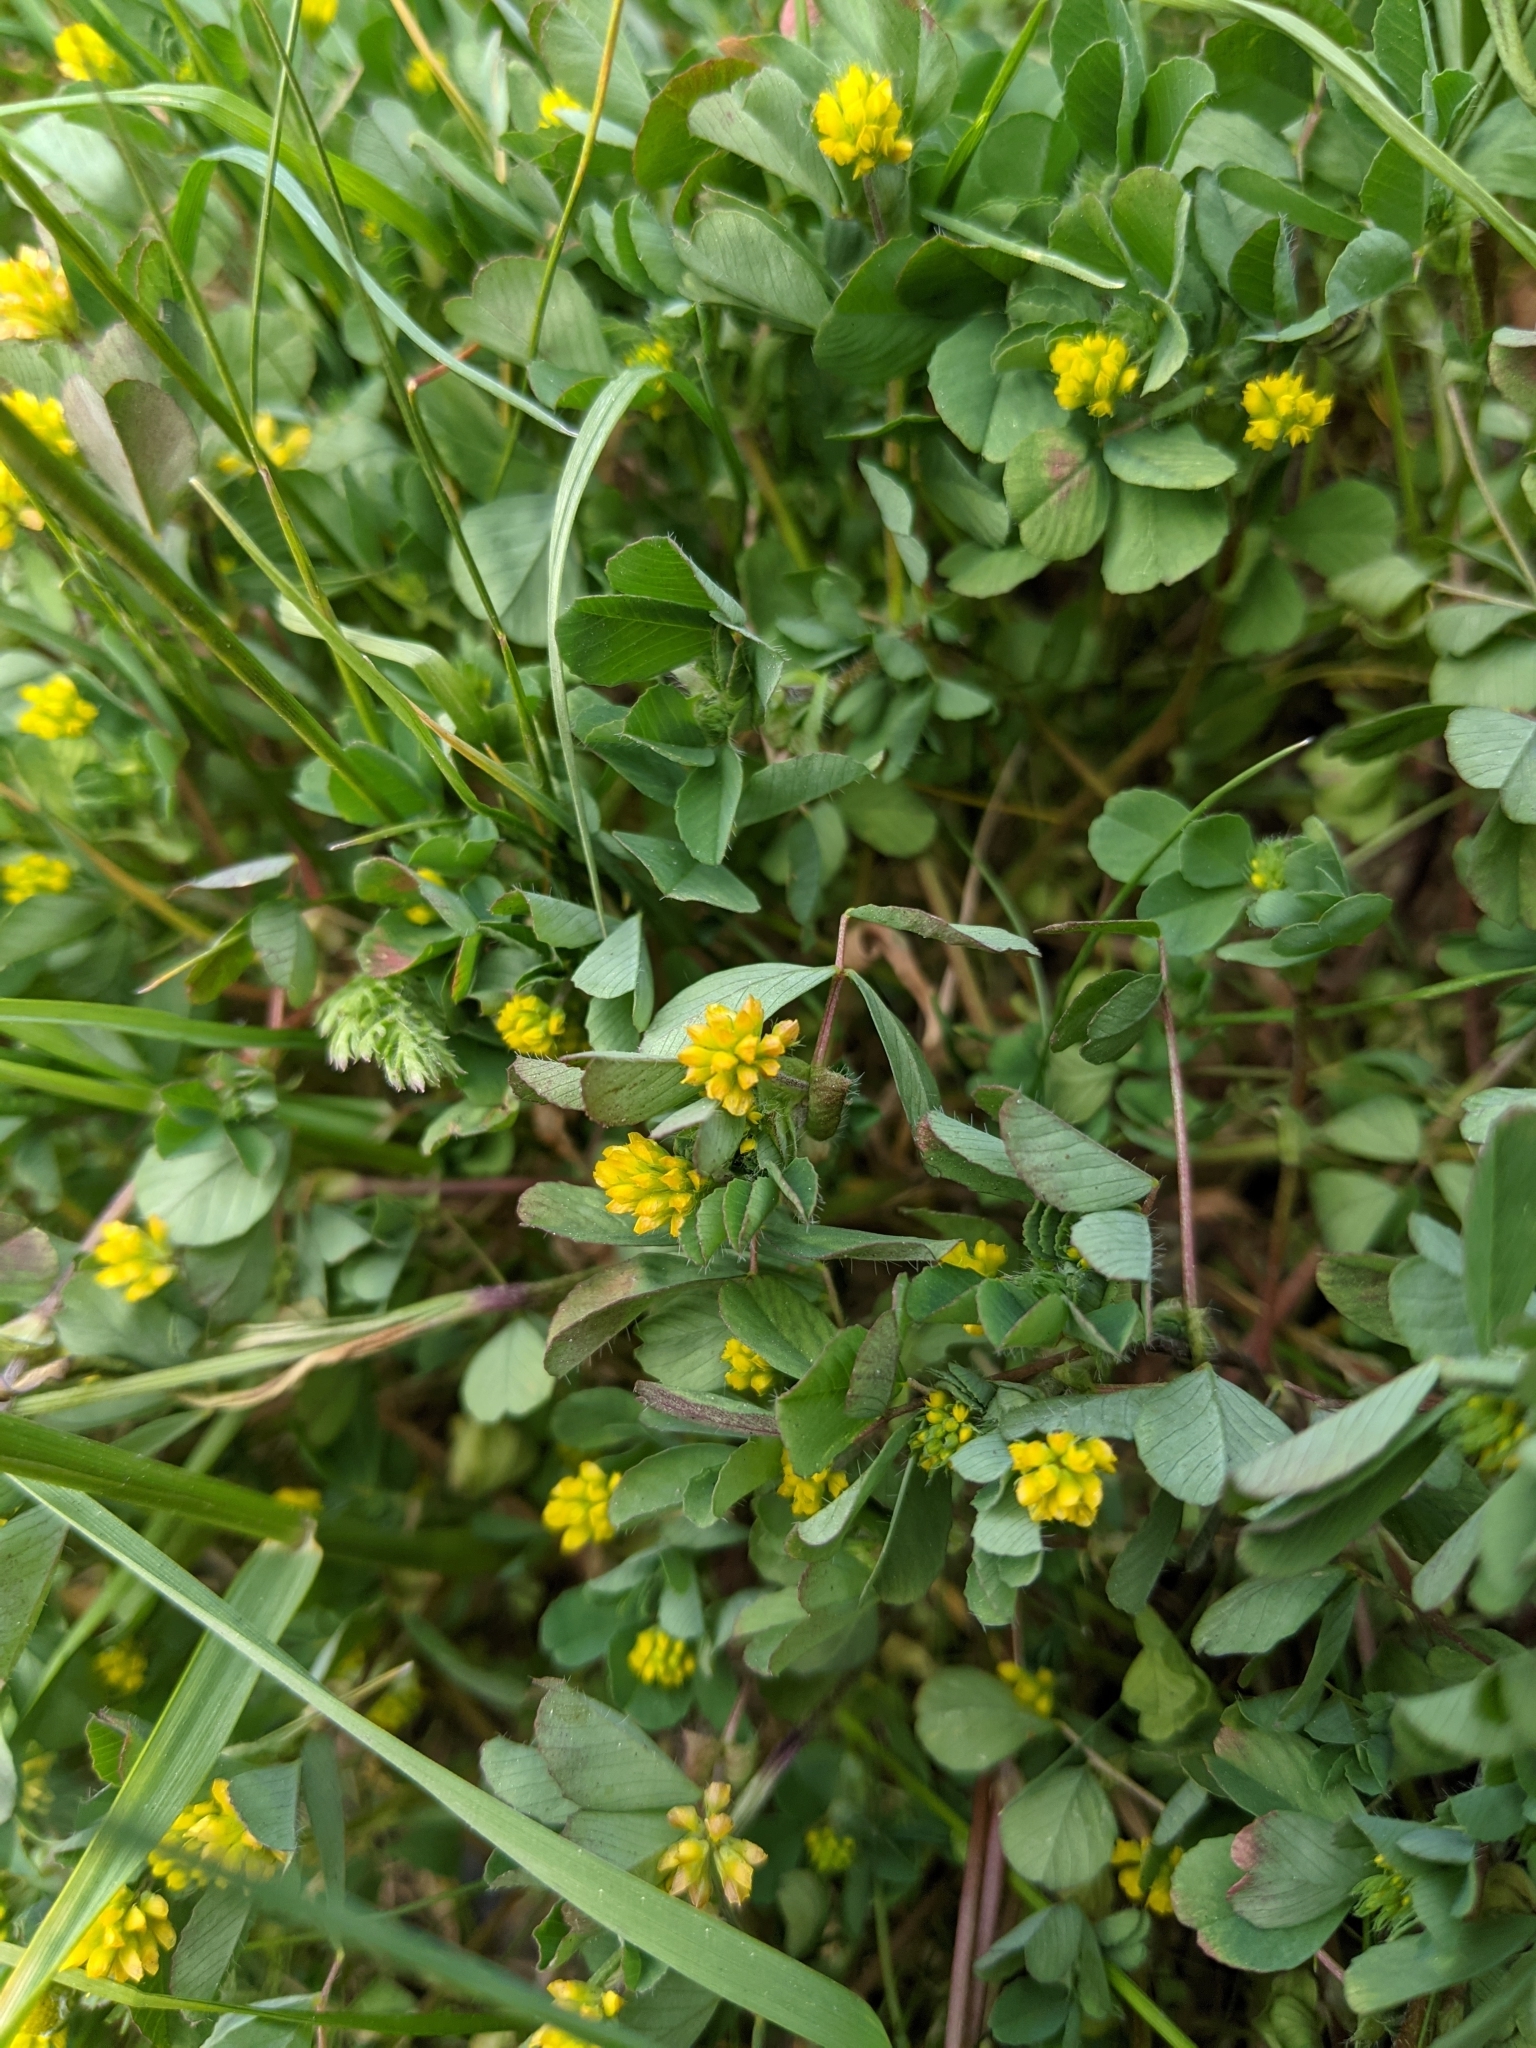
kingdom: Plantae
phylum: Tracheophyta
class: Magnoliopsida
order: Fabales
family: Fabaceae
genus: Trifolium
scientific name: Trifolium campestre
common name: Field clover
